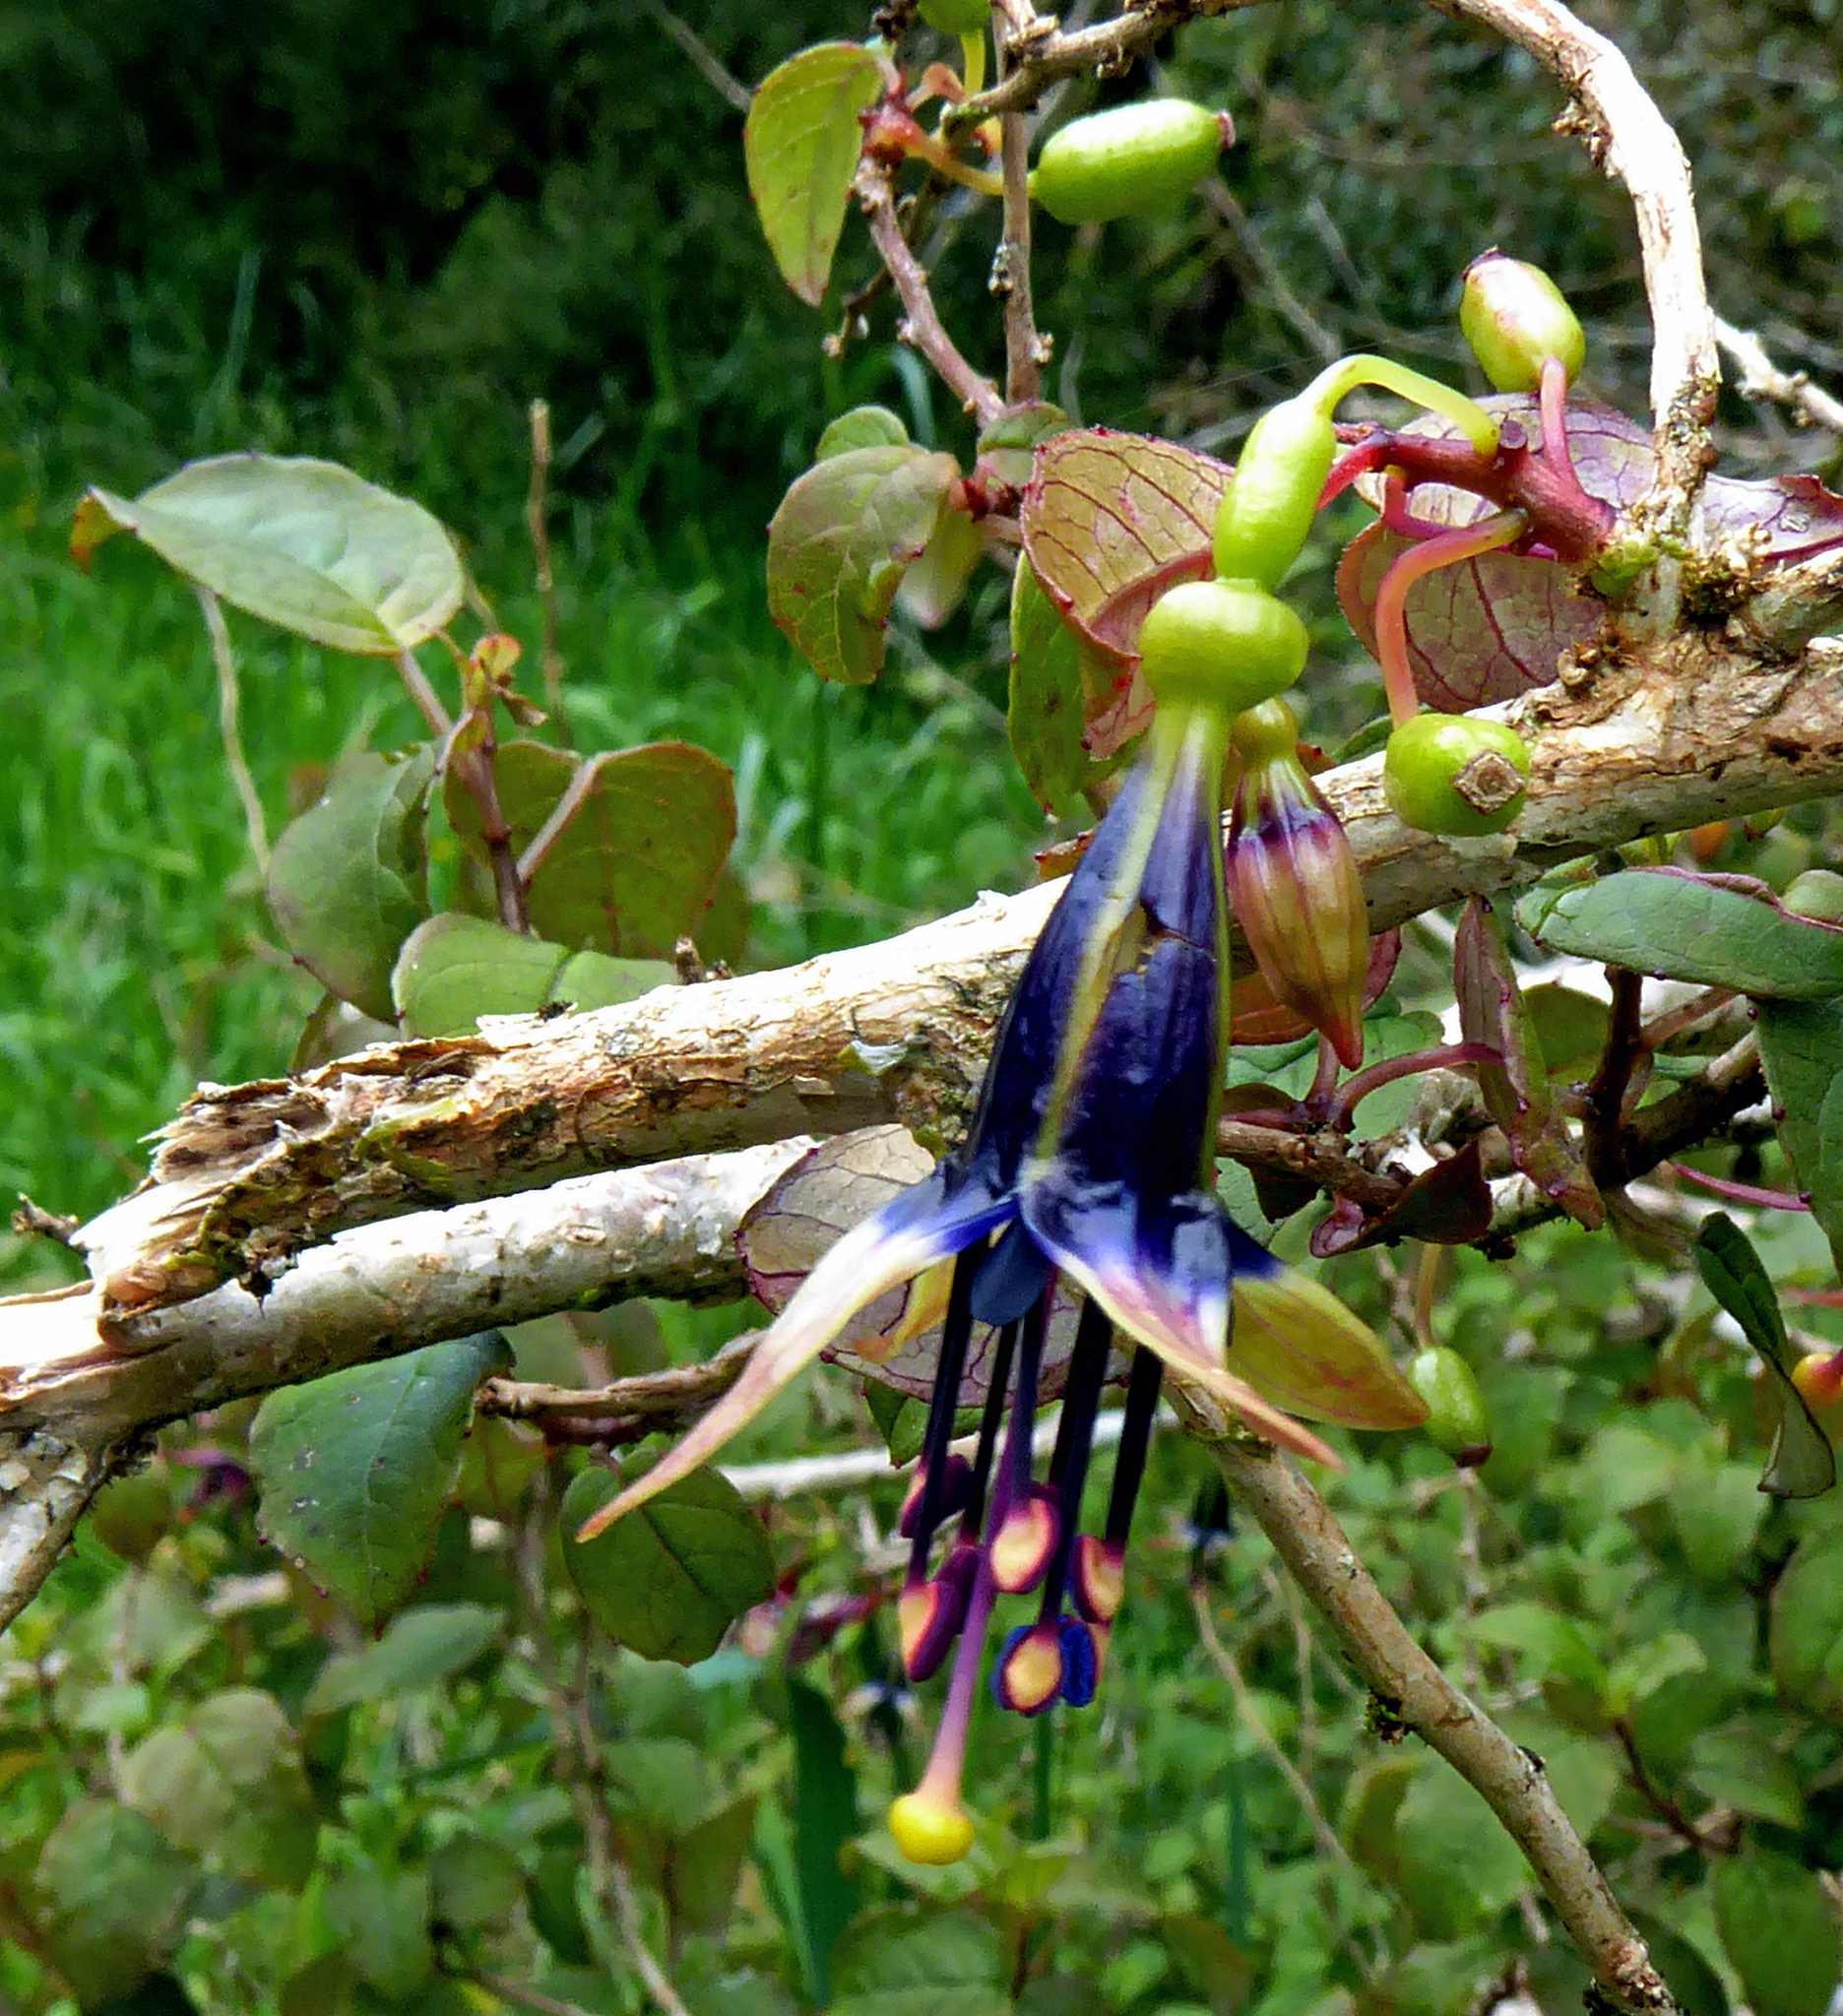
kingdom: Plantae
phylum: Tracheophyta
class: Magnoliopsida
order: Myrtales
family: Onagraceae
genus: Fuchsia
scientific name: Fuchsia perscandens
